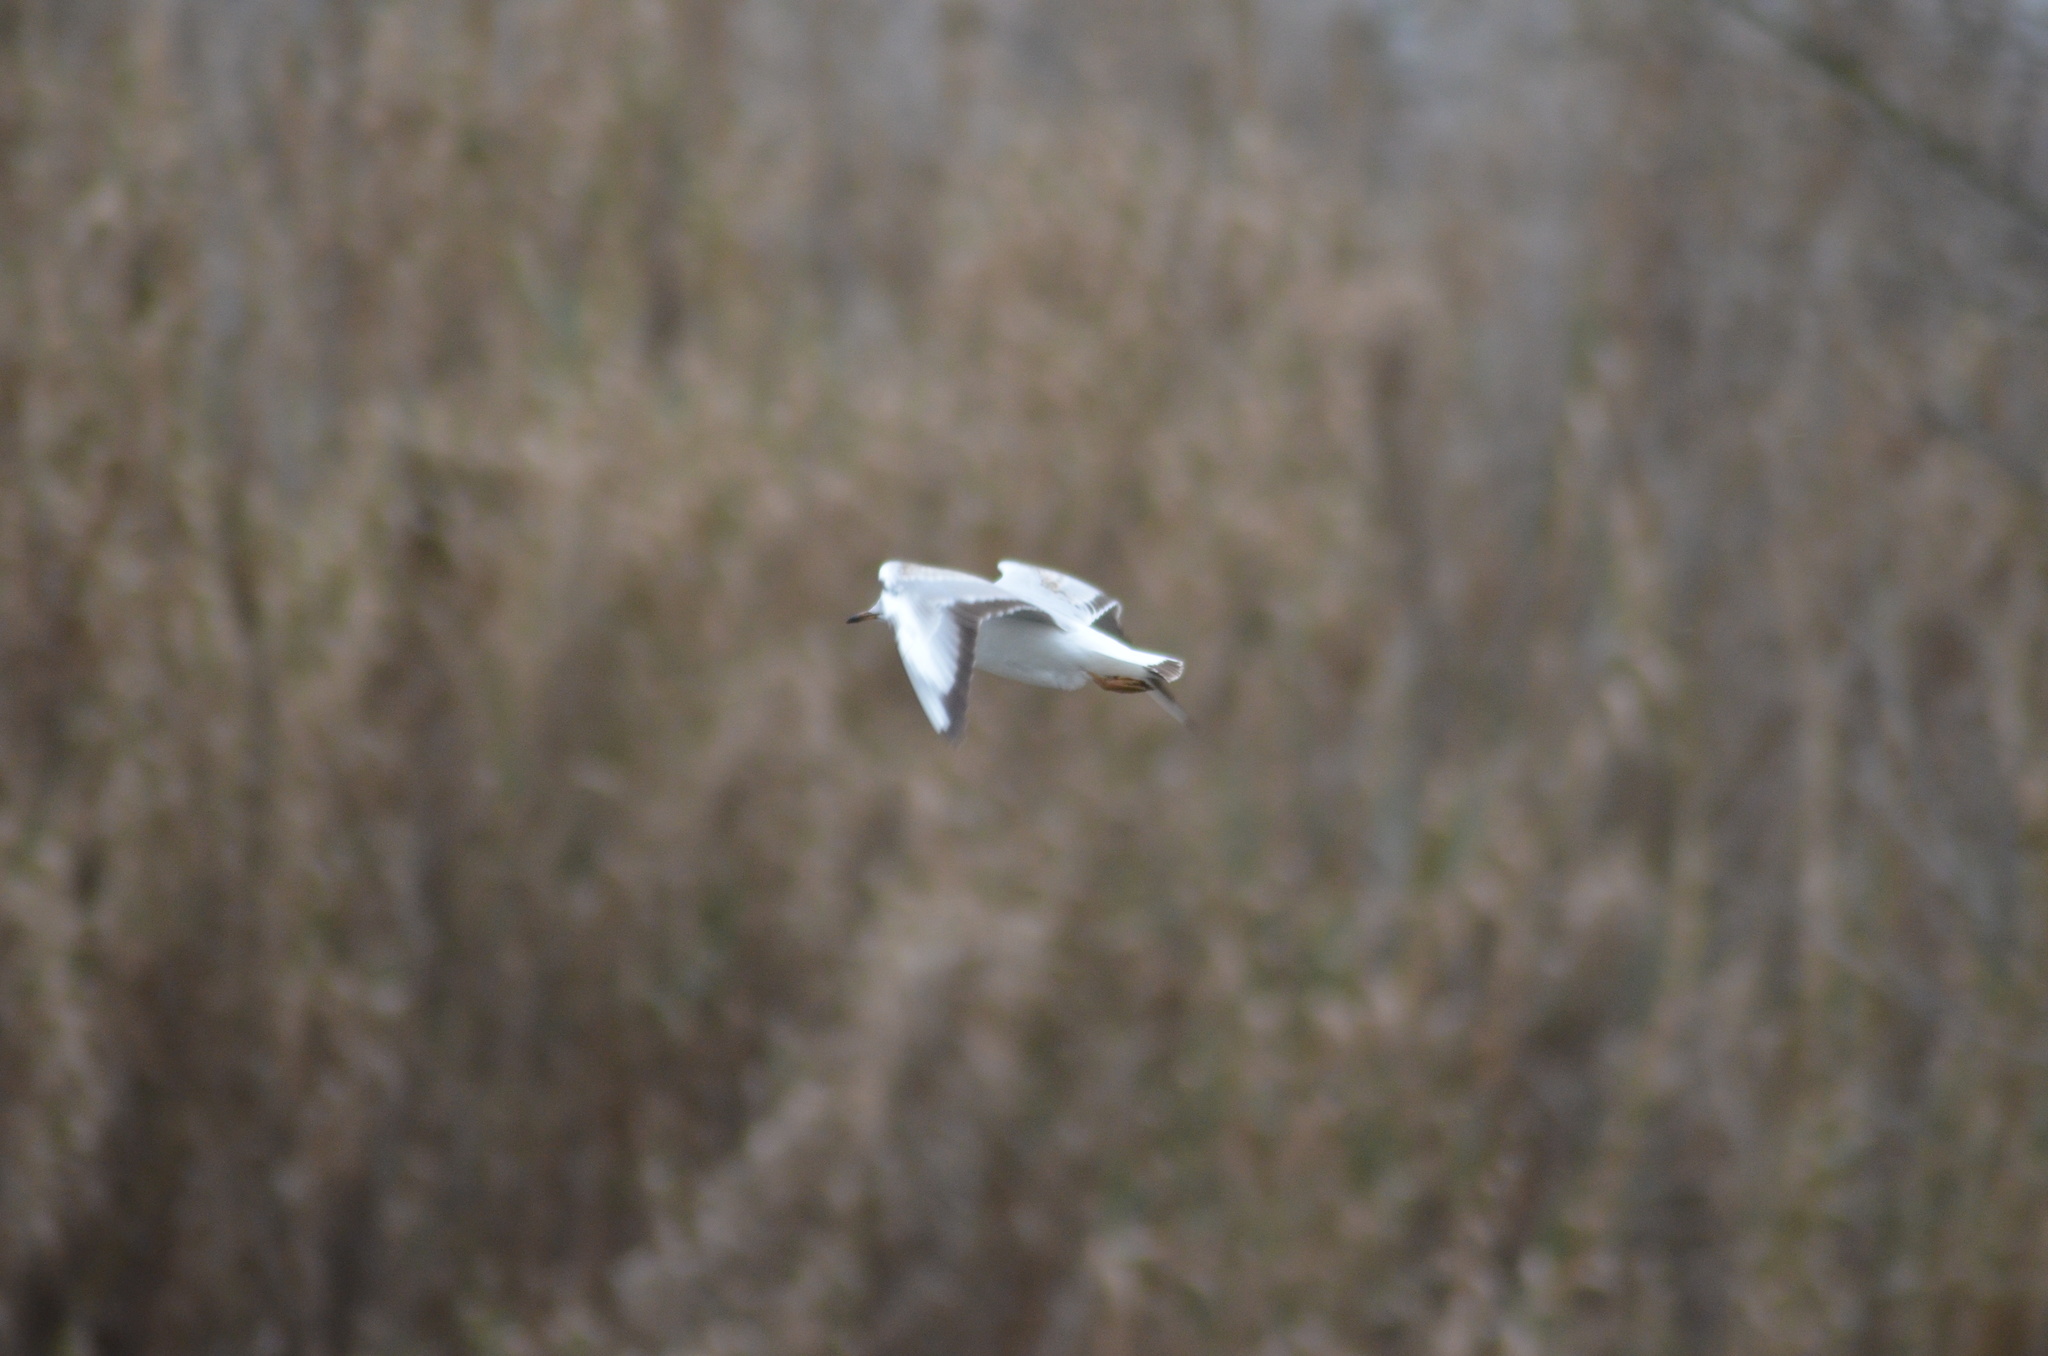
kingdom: Animalia
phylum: Chordata
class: Aves
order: Charadriiformes
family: Laridae
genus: Chroicocephalus
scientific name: Chroicocephalus ridibundus
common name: Black-headed gull
